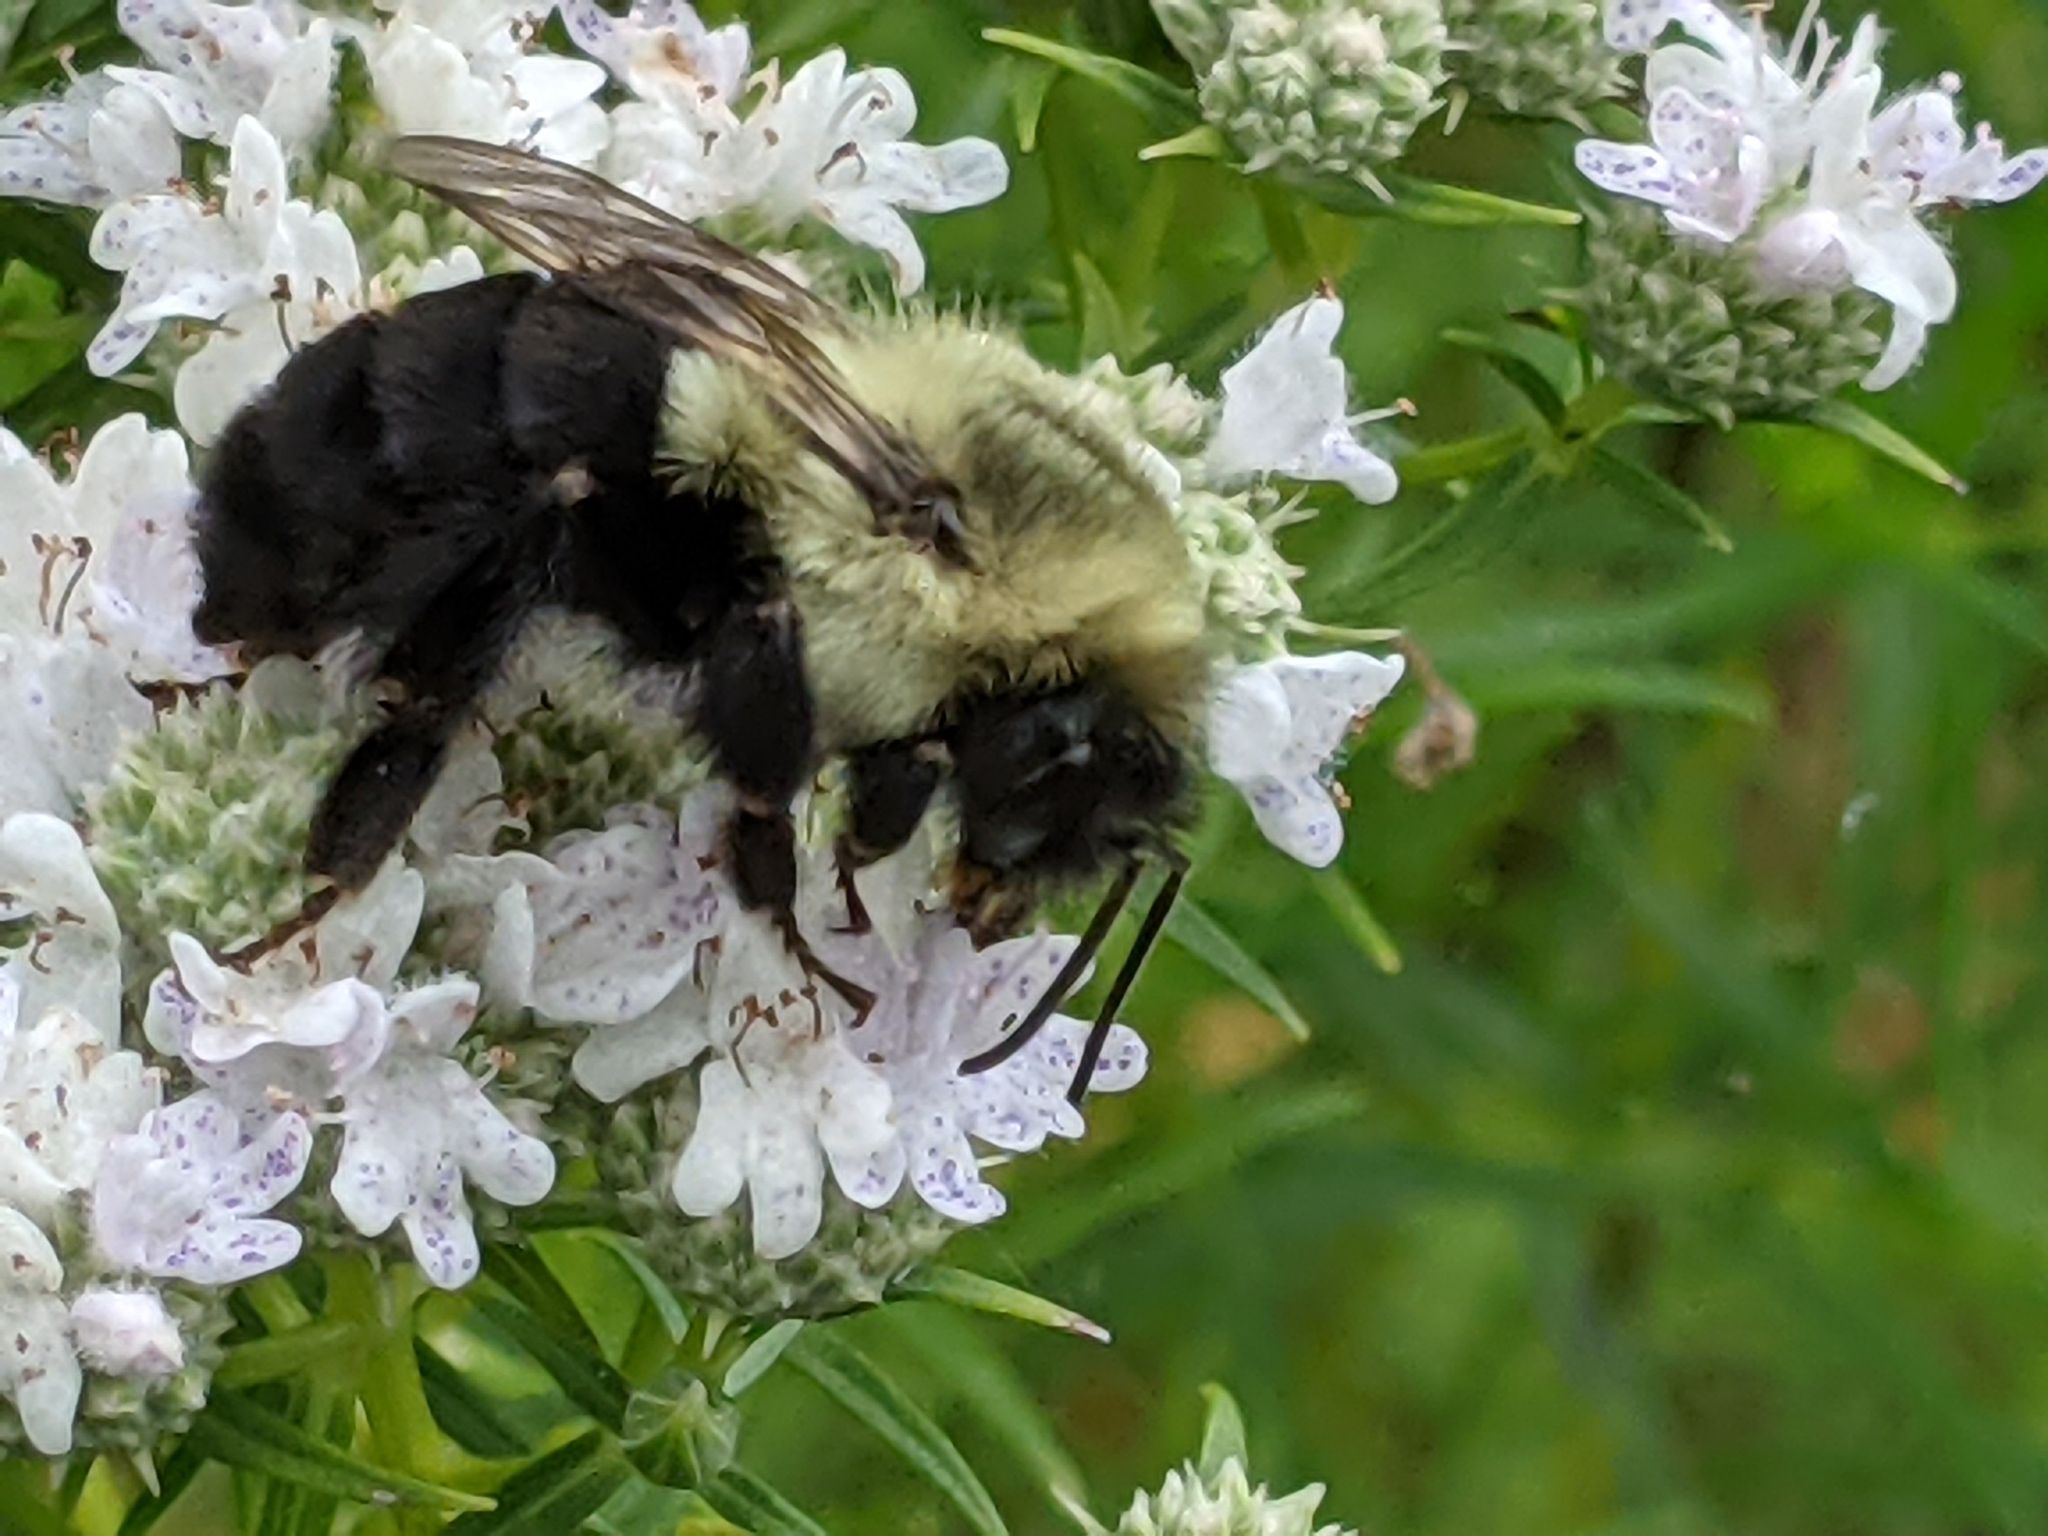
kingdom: Animalia
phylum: Arthropoda
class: Insecta
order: Hymenoptera
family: Apidae
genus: Bombus
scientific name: Bombus impatiens
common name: Common eastern bumble bee
